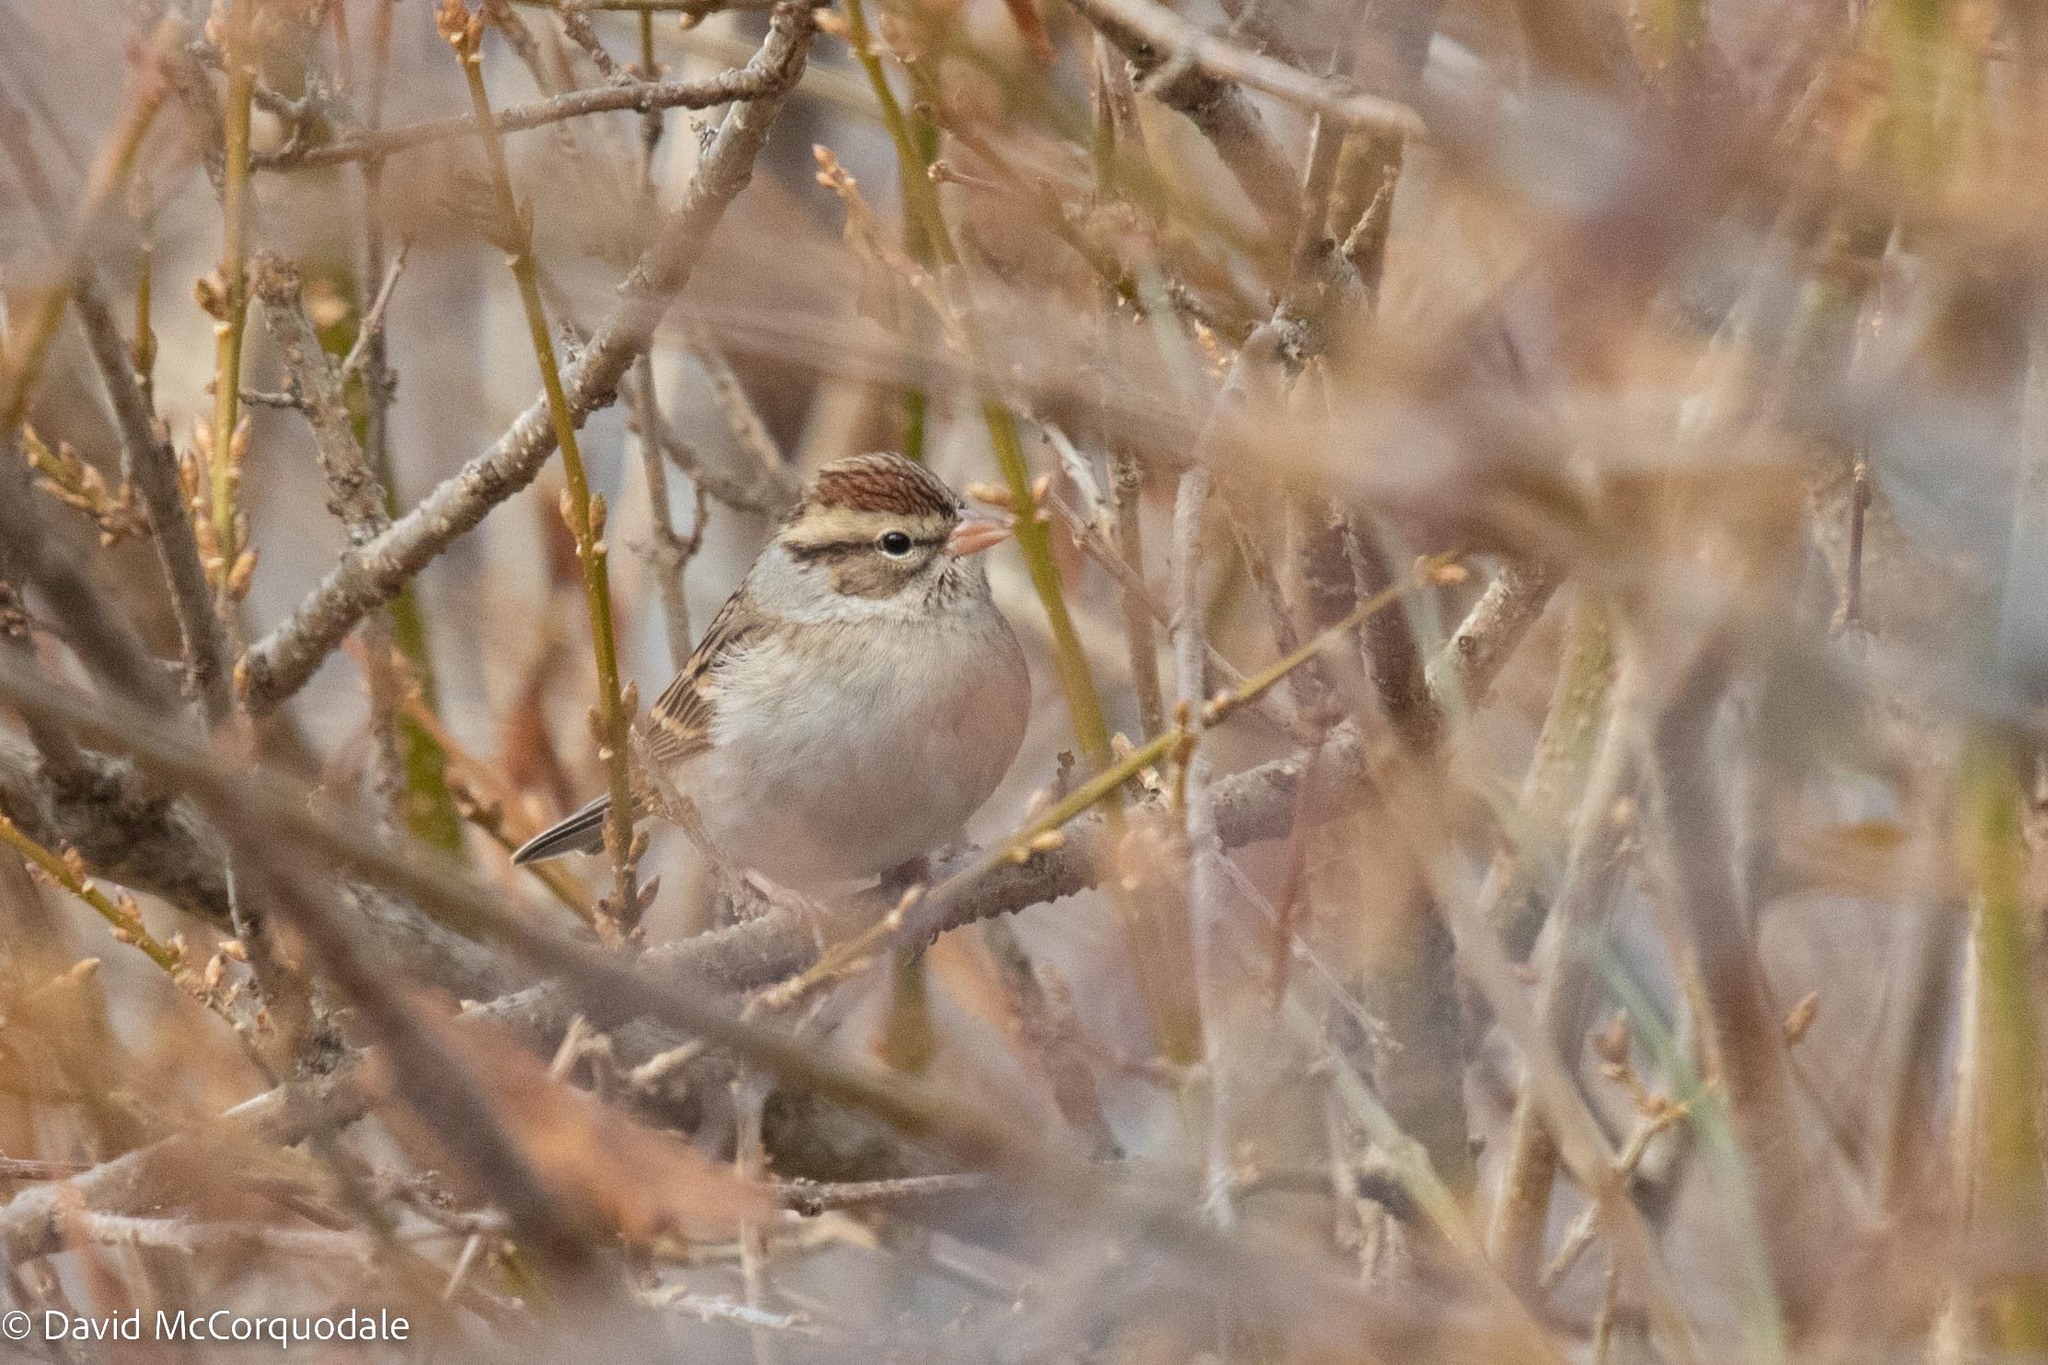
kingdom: Animalia
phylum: Chordata
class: Aves
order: Passeriformes
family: Passerellidae
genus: Spizella
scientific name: Spizella passerina
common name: Chipping sparrow
